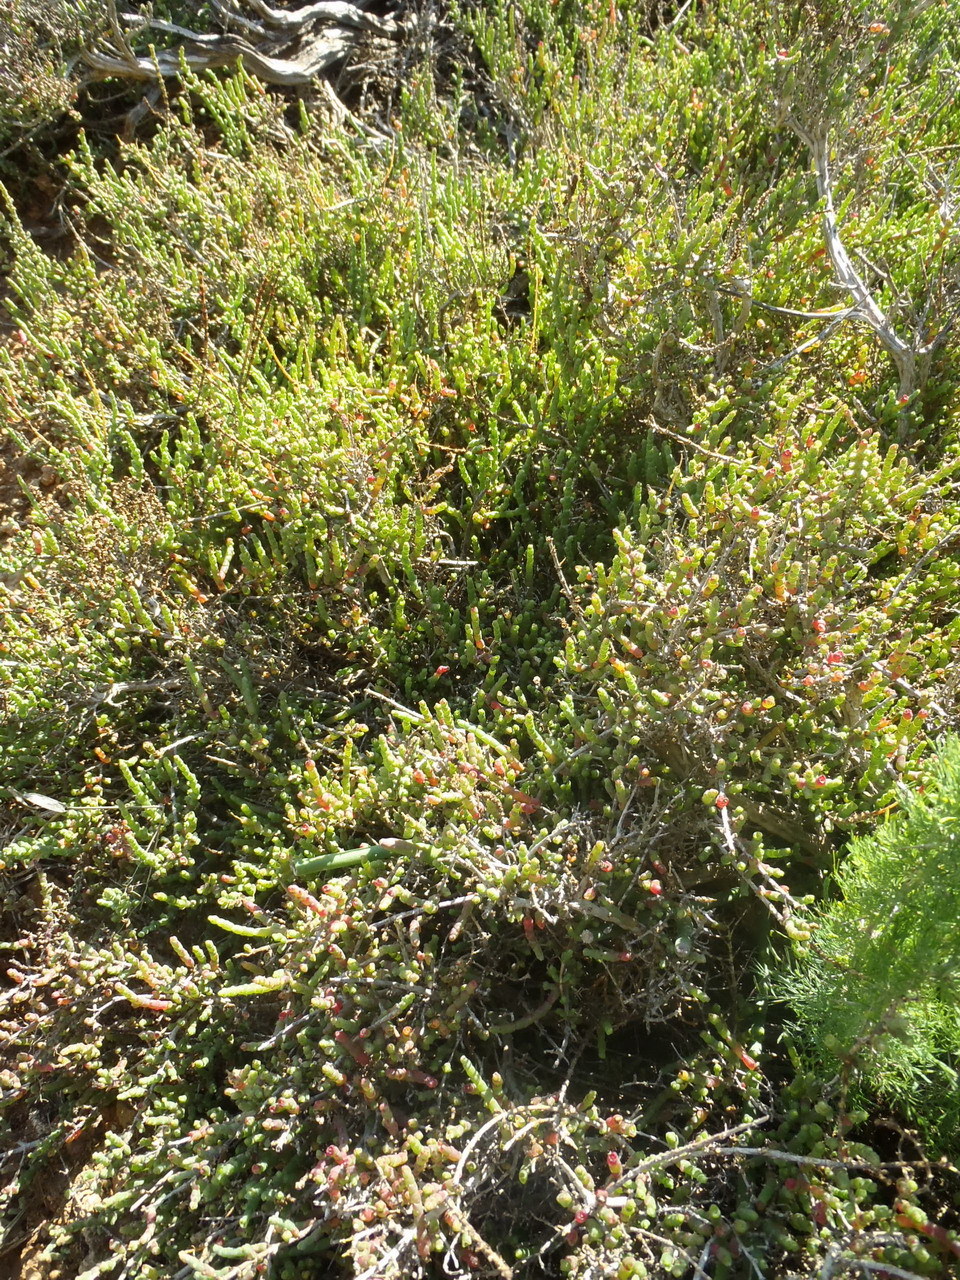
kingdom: Plantae
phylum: Tracheophyta
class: Magnoliopsida
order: Caryophyllales
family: Amaranthaceae
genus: Salicornia
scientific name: Salicornia mossiana
